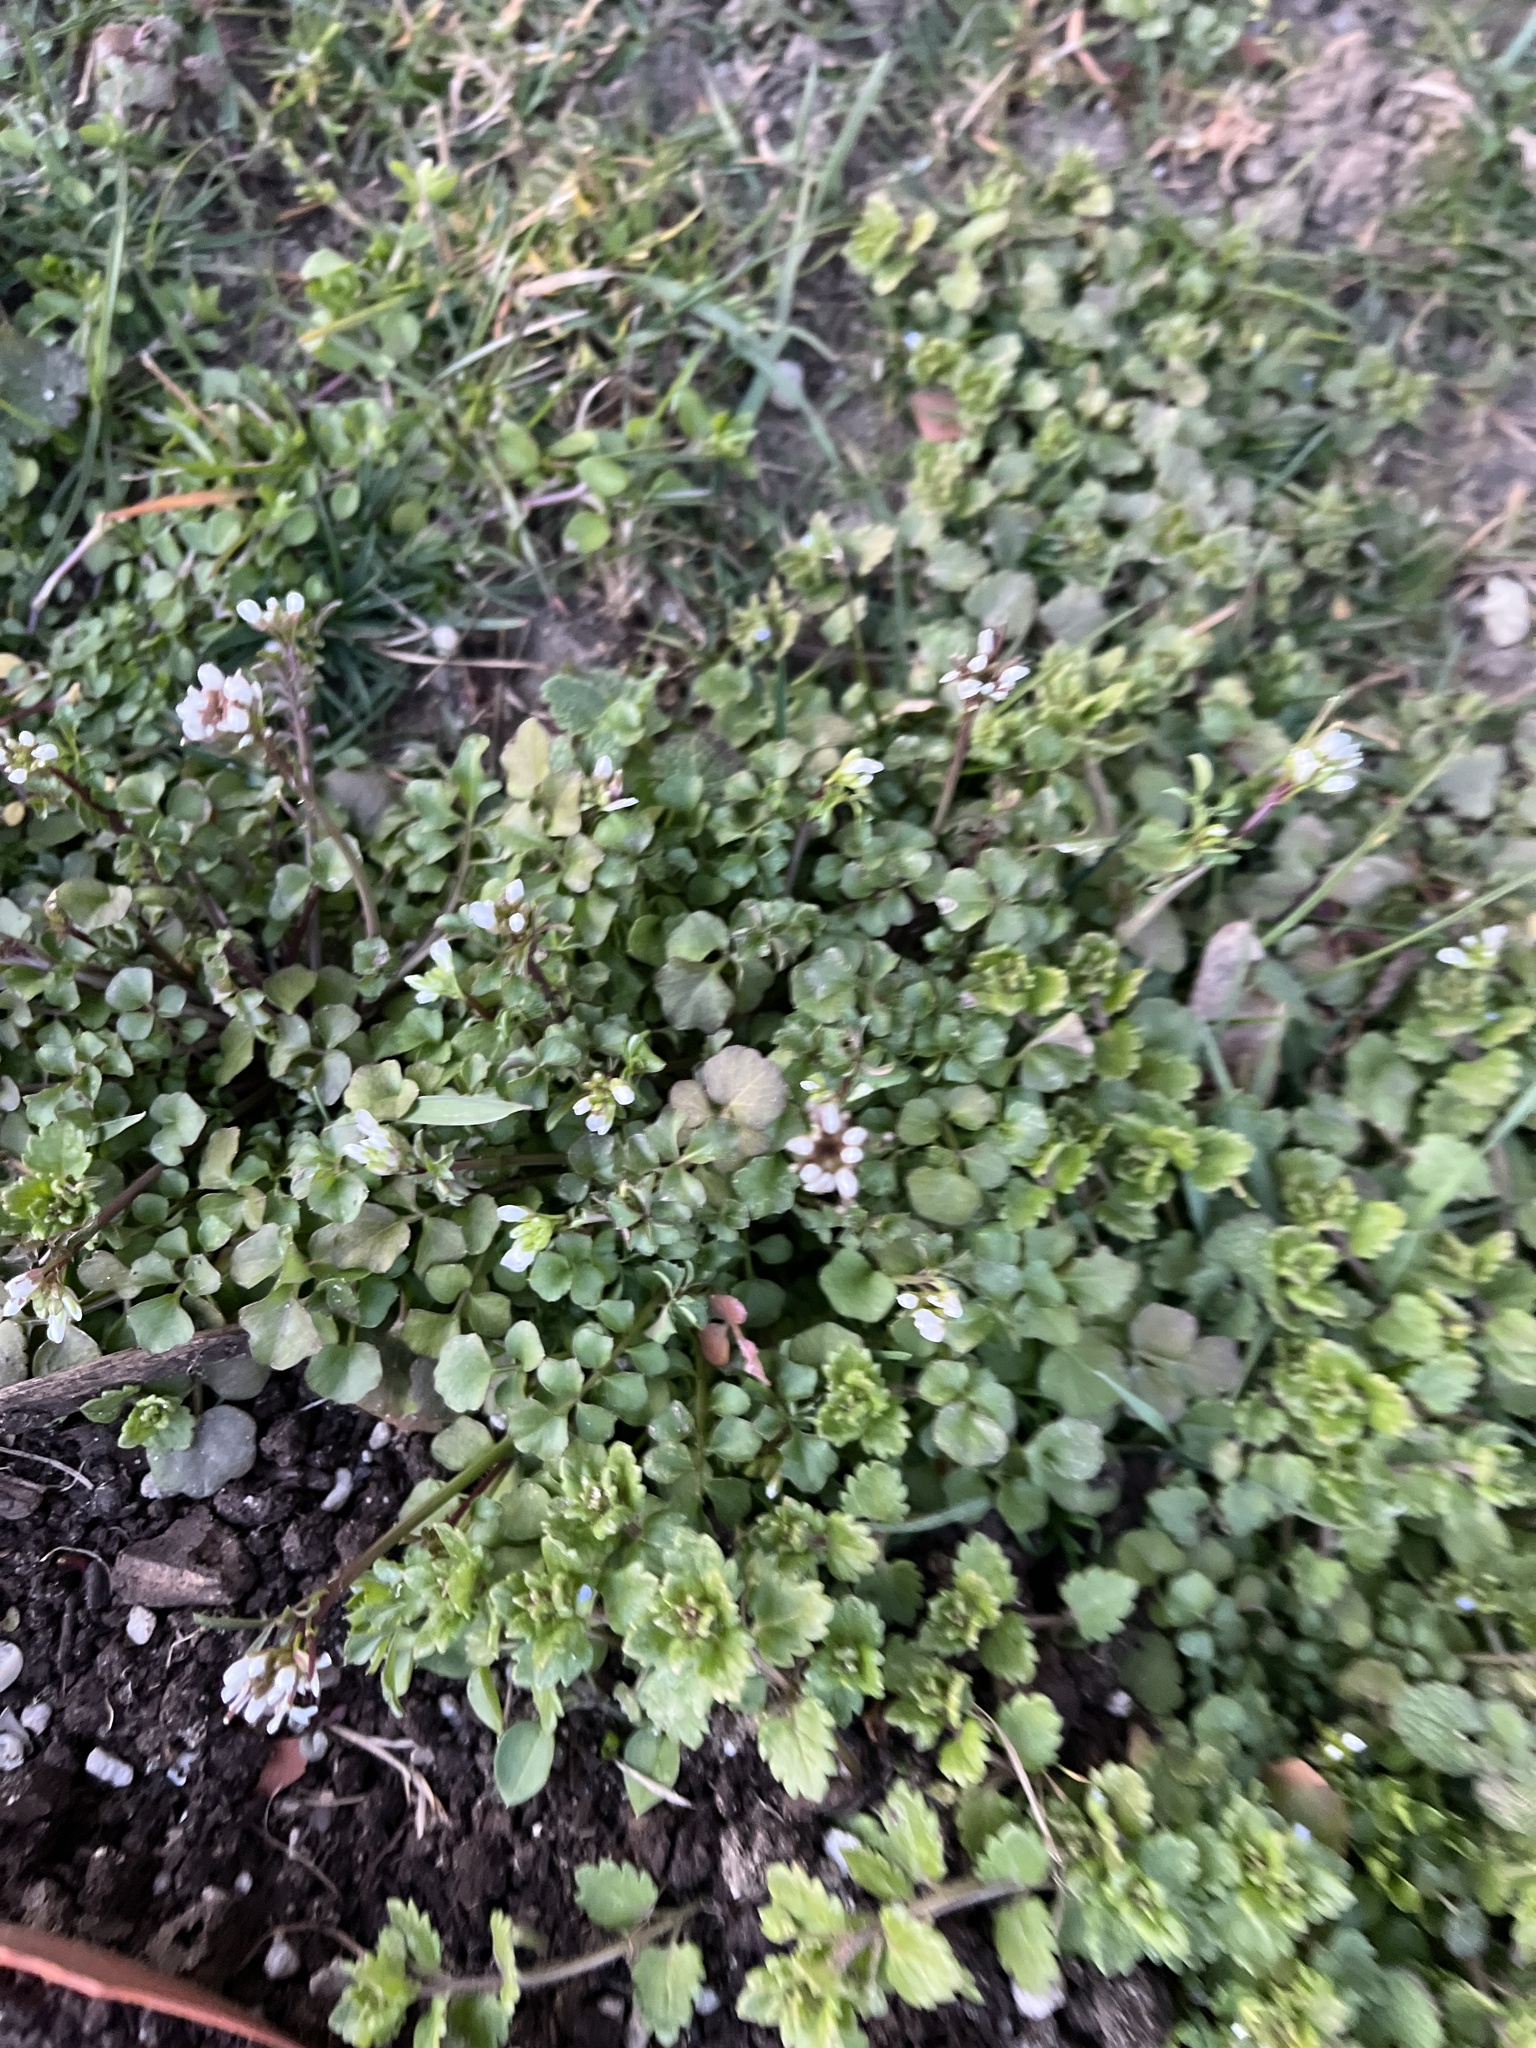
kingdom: Plantae
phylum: Tracheophyta
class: Magnoliopsida
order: Brassicales
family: Brassicaceae
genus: Cardamine
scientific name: Cardamine hirsuta
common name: Hairy bittercress
